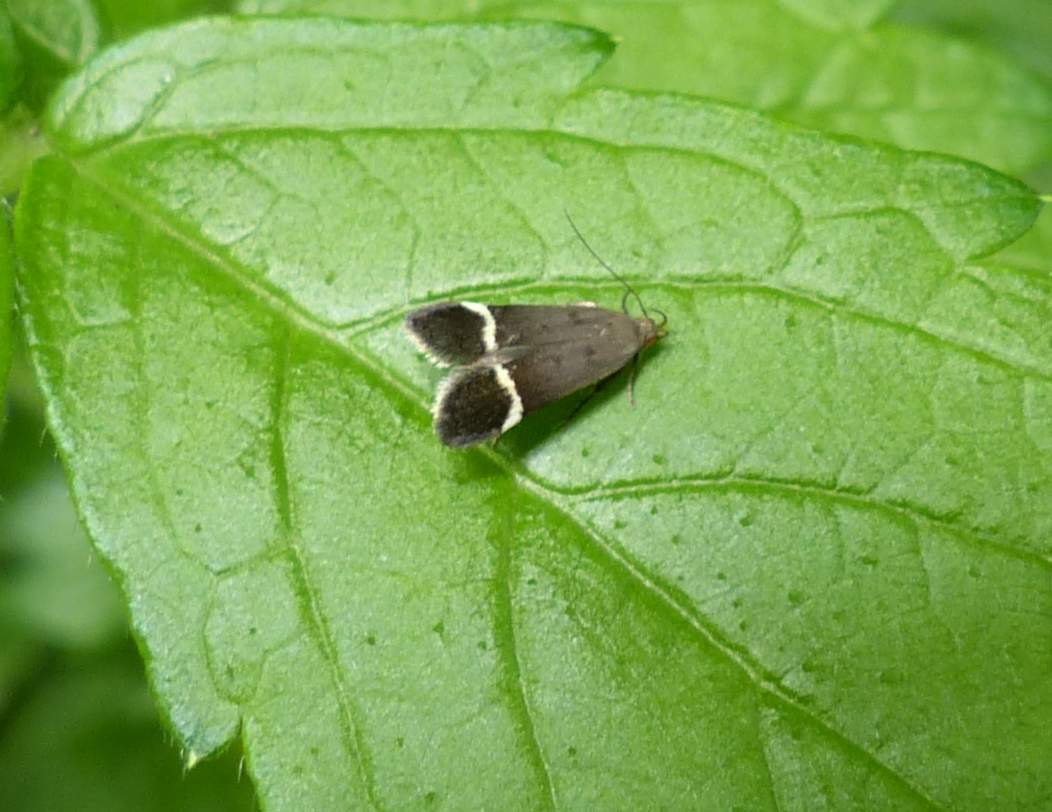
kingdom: Animalia
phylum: Arthropoda
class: Insecta
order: Lepidoptera
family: Gelechiidae
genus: Anacampsis
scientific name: Anacampsis agrimoniella
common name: Agrimony anacampsis moth
